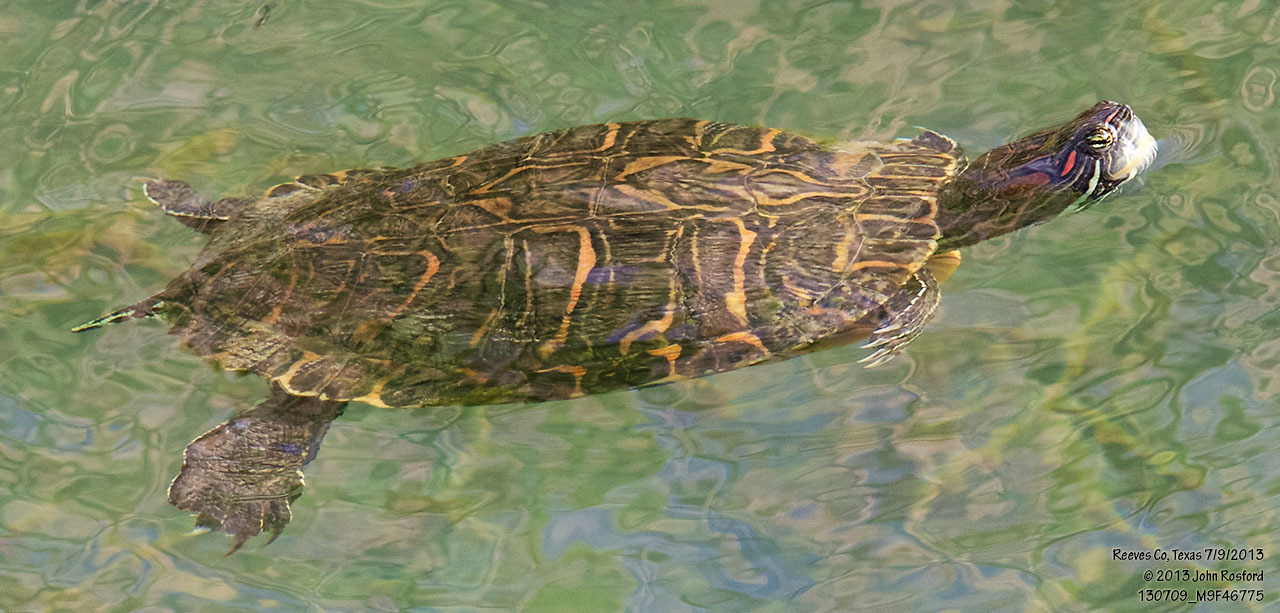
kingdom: Animalia
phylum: Chordata
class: Testudines
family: Emydidae
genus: Trachemys
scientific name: Trachemys scripta
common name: Slider
